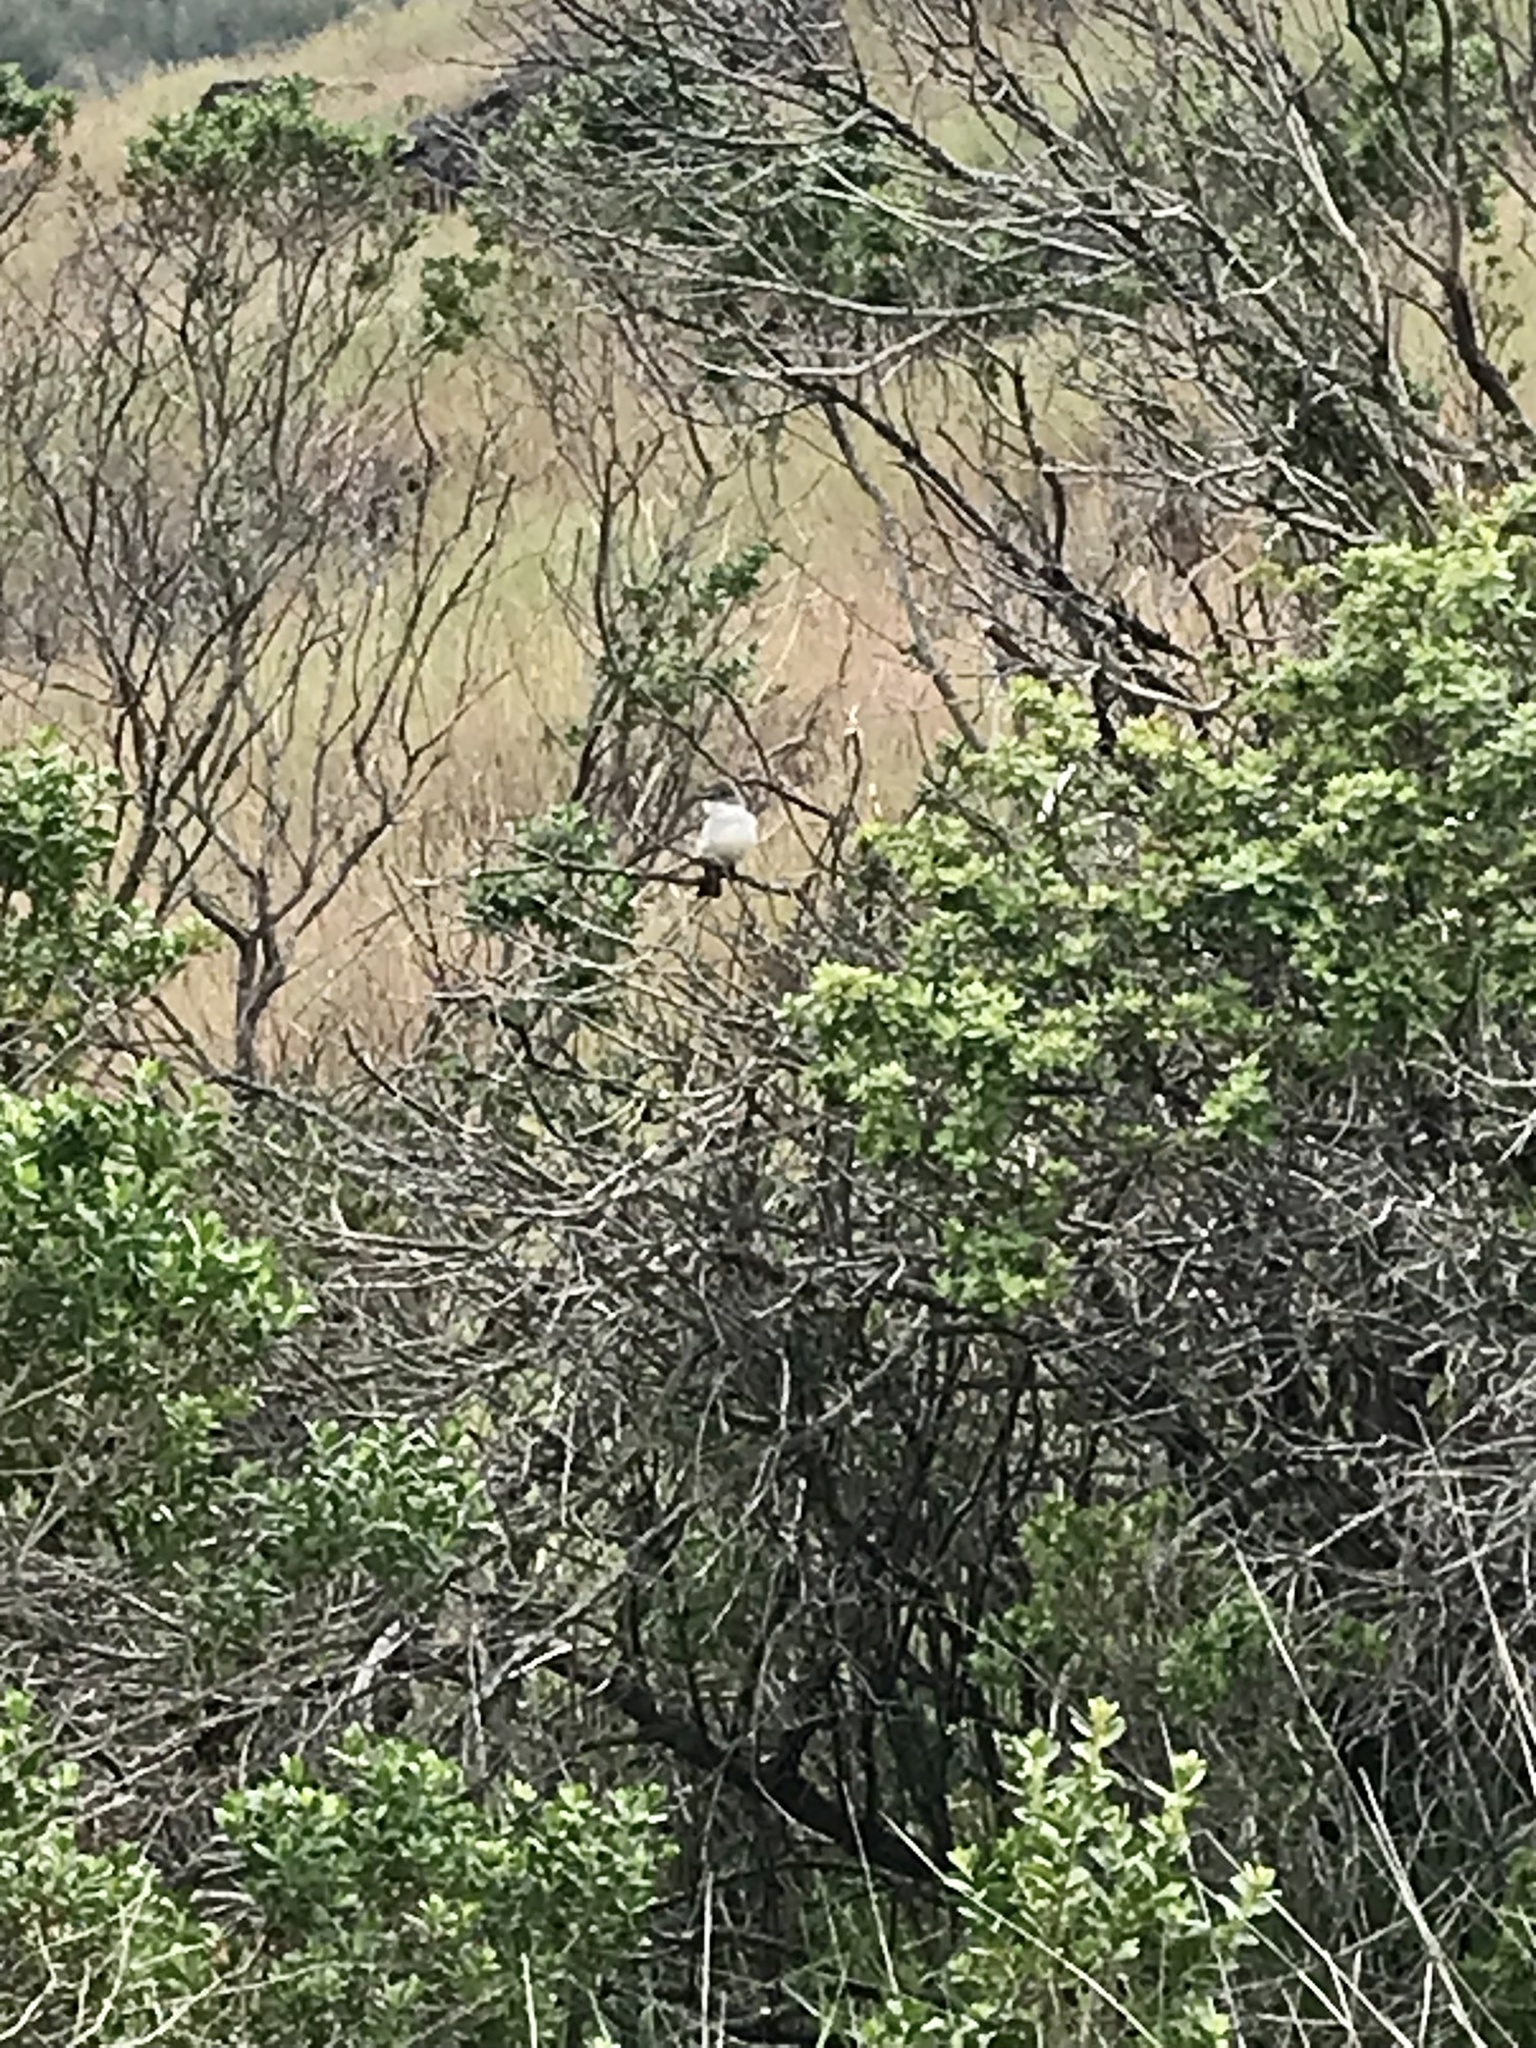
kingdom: Animalia
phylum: Chordata
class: Aves
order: Passeriformes
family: Tyrannidae
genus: Myiarchus
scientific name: Myiarchus cinerascens
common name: Ash-throated flycatcher
